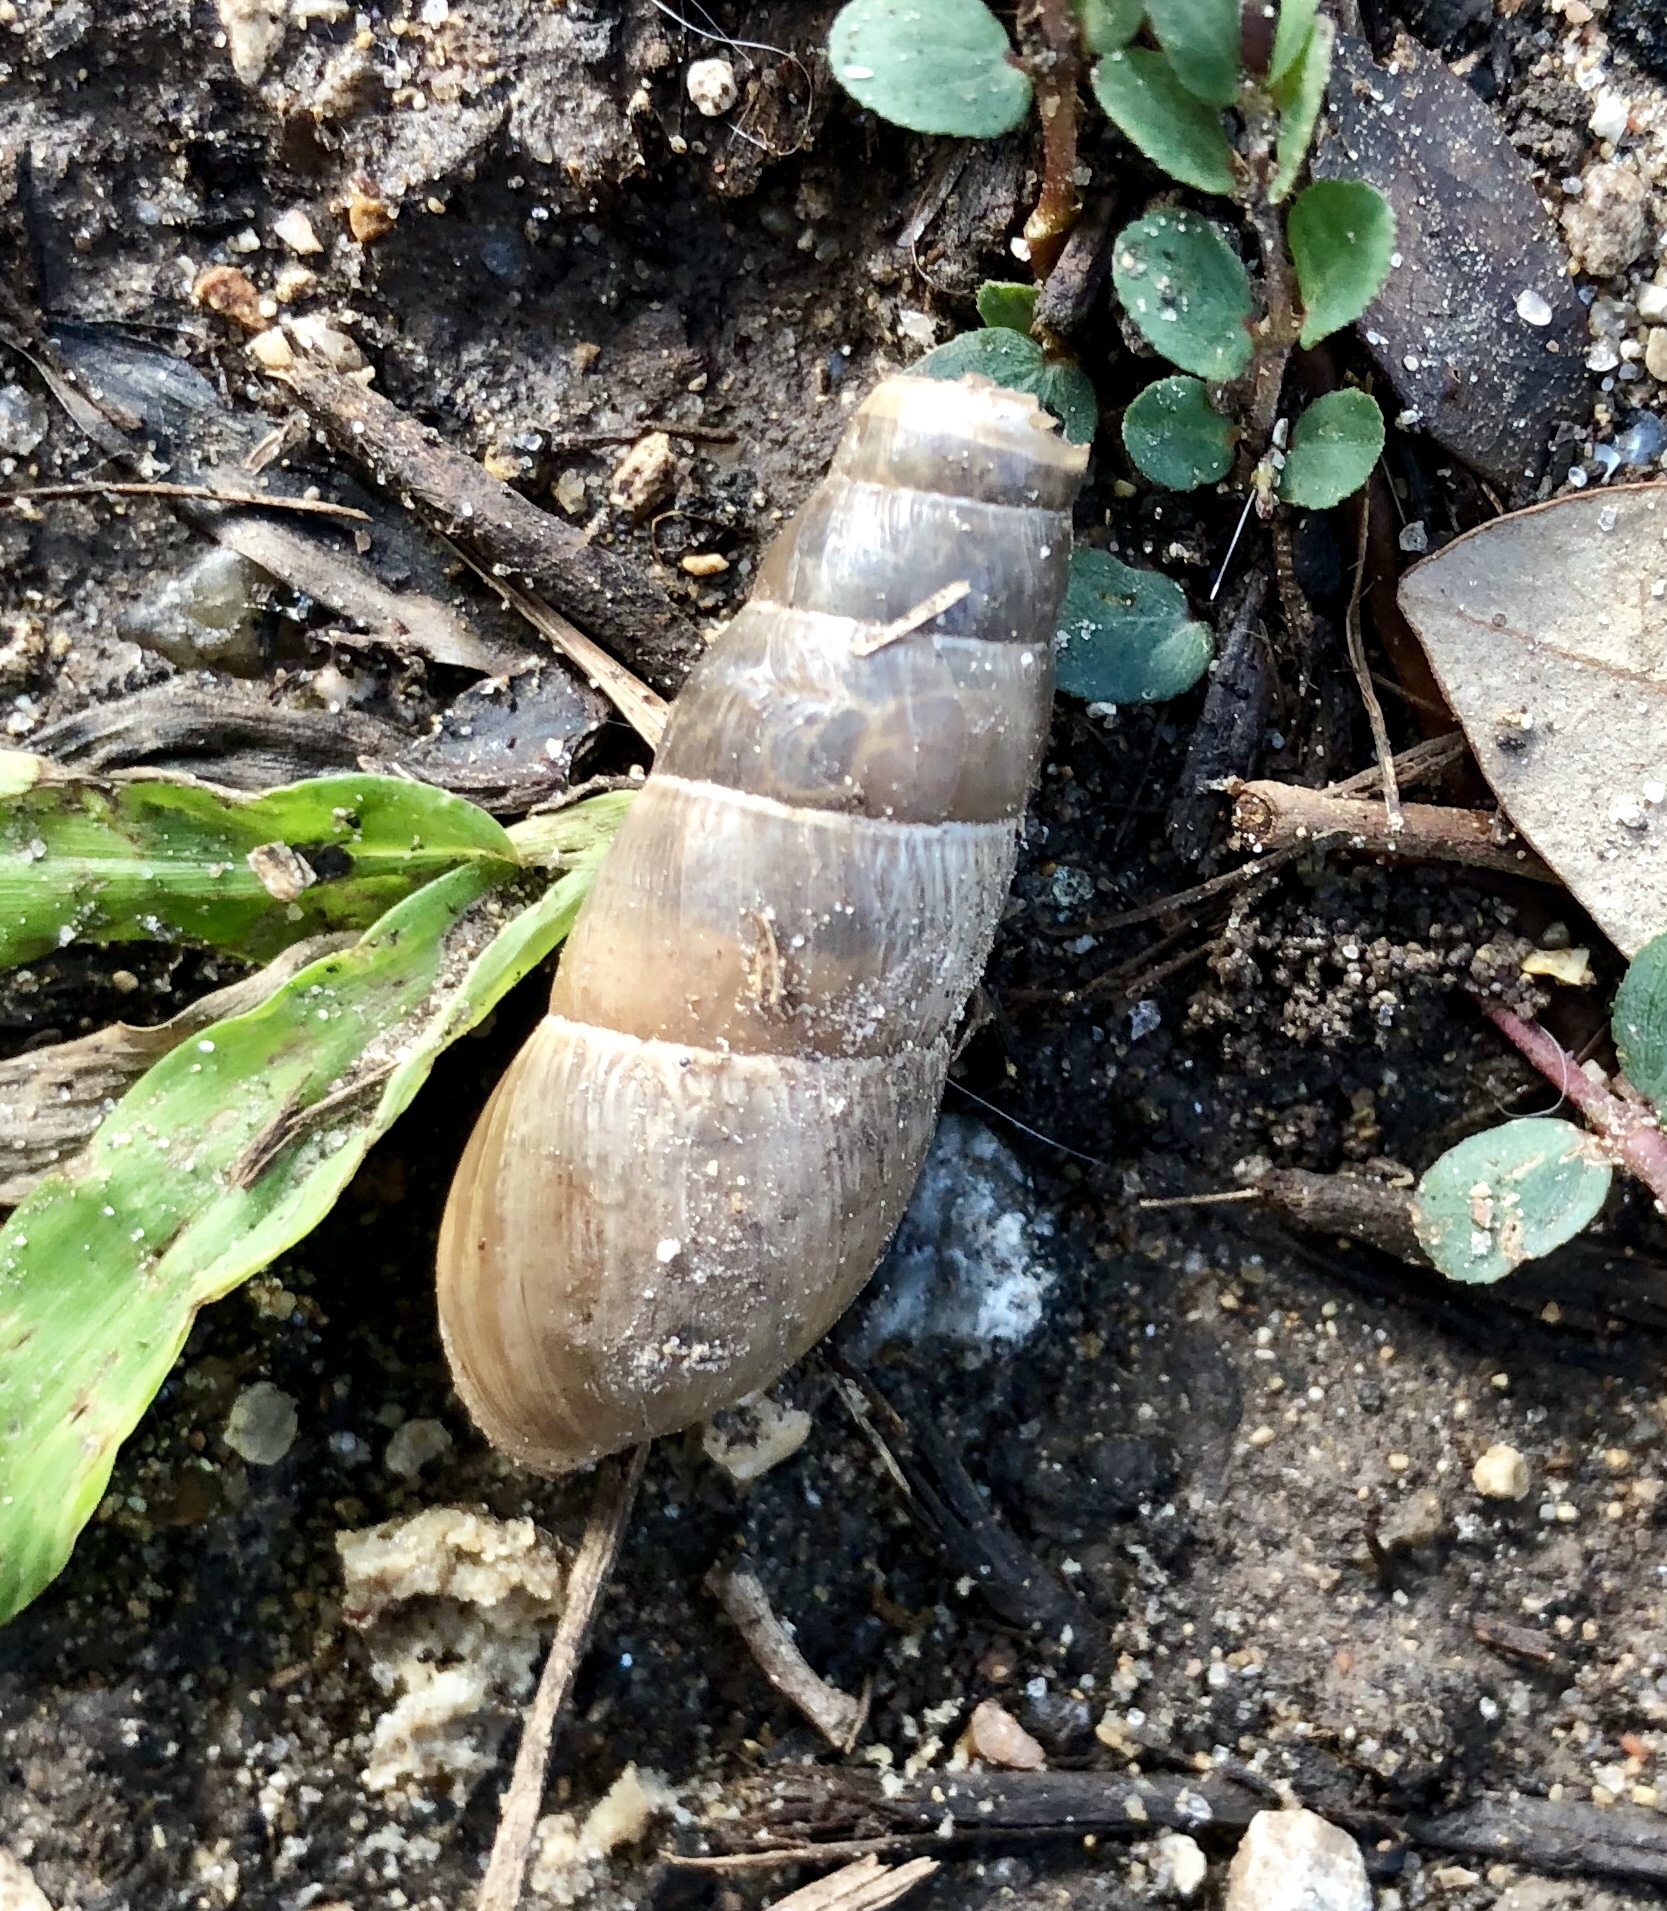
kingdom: Animalia
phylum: Mollusca
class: Gastropoda
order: Stylommatophora
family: Achatinidae
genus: Rumina
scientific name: Rumina decollata
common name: Decollate snail
